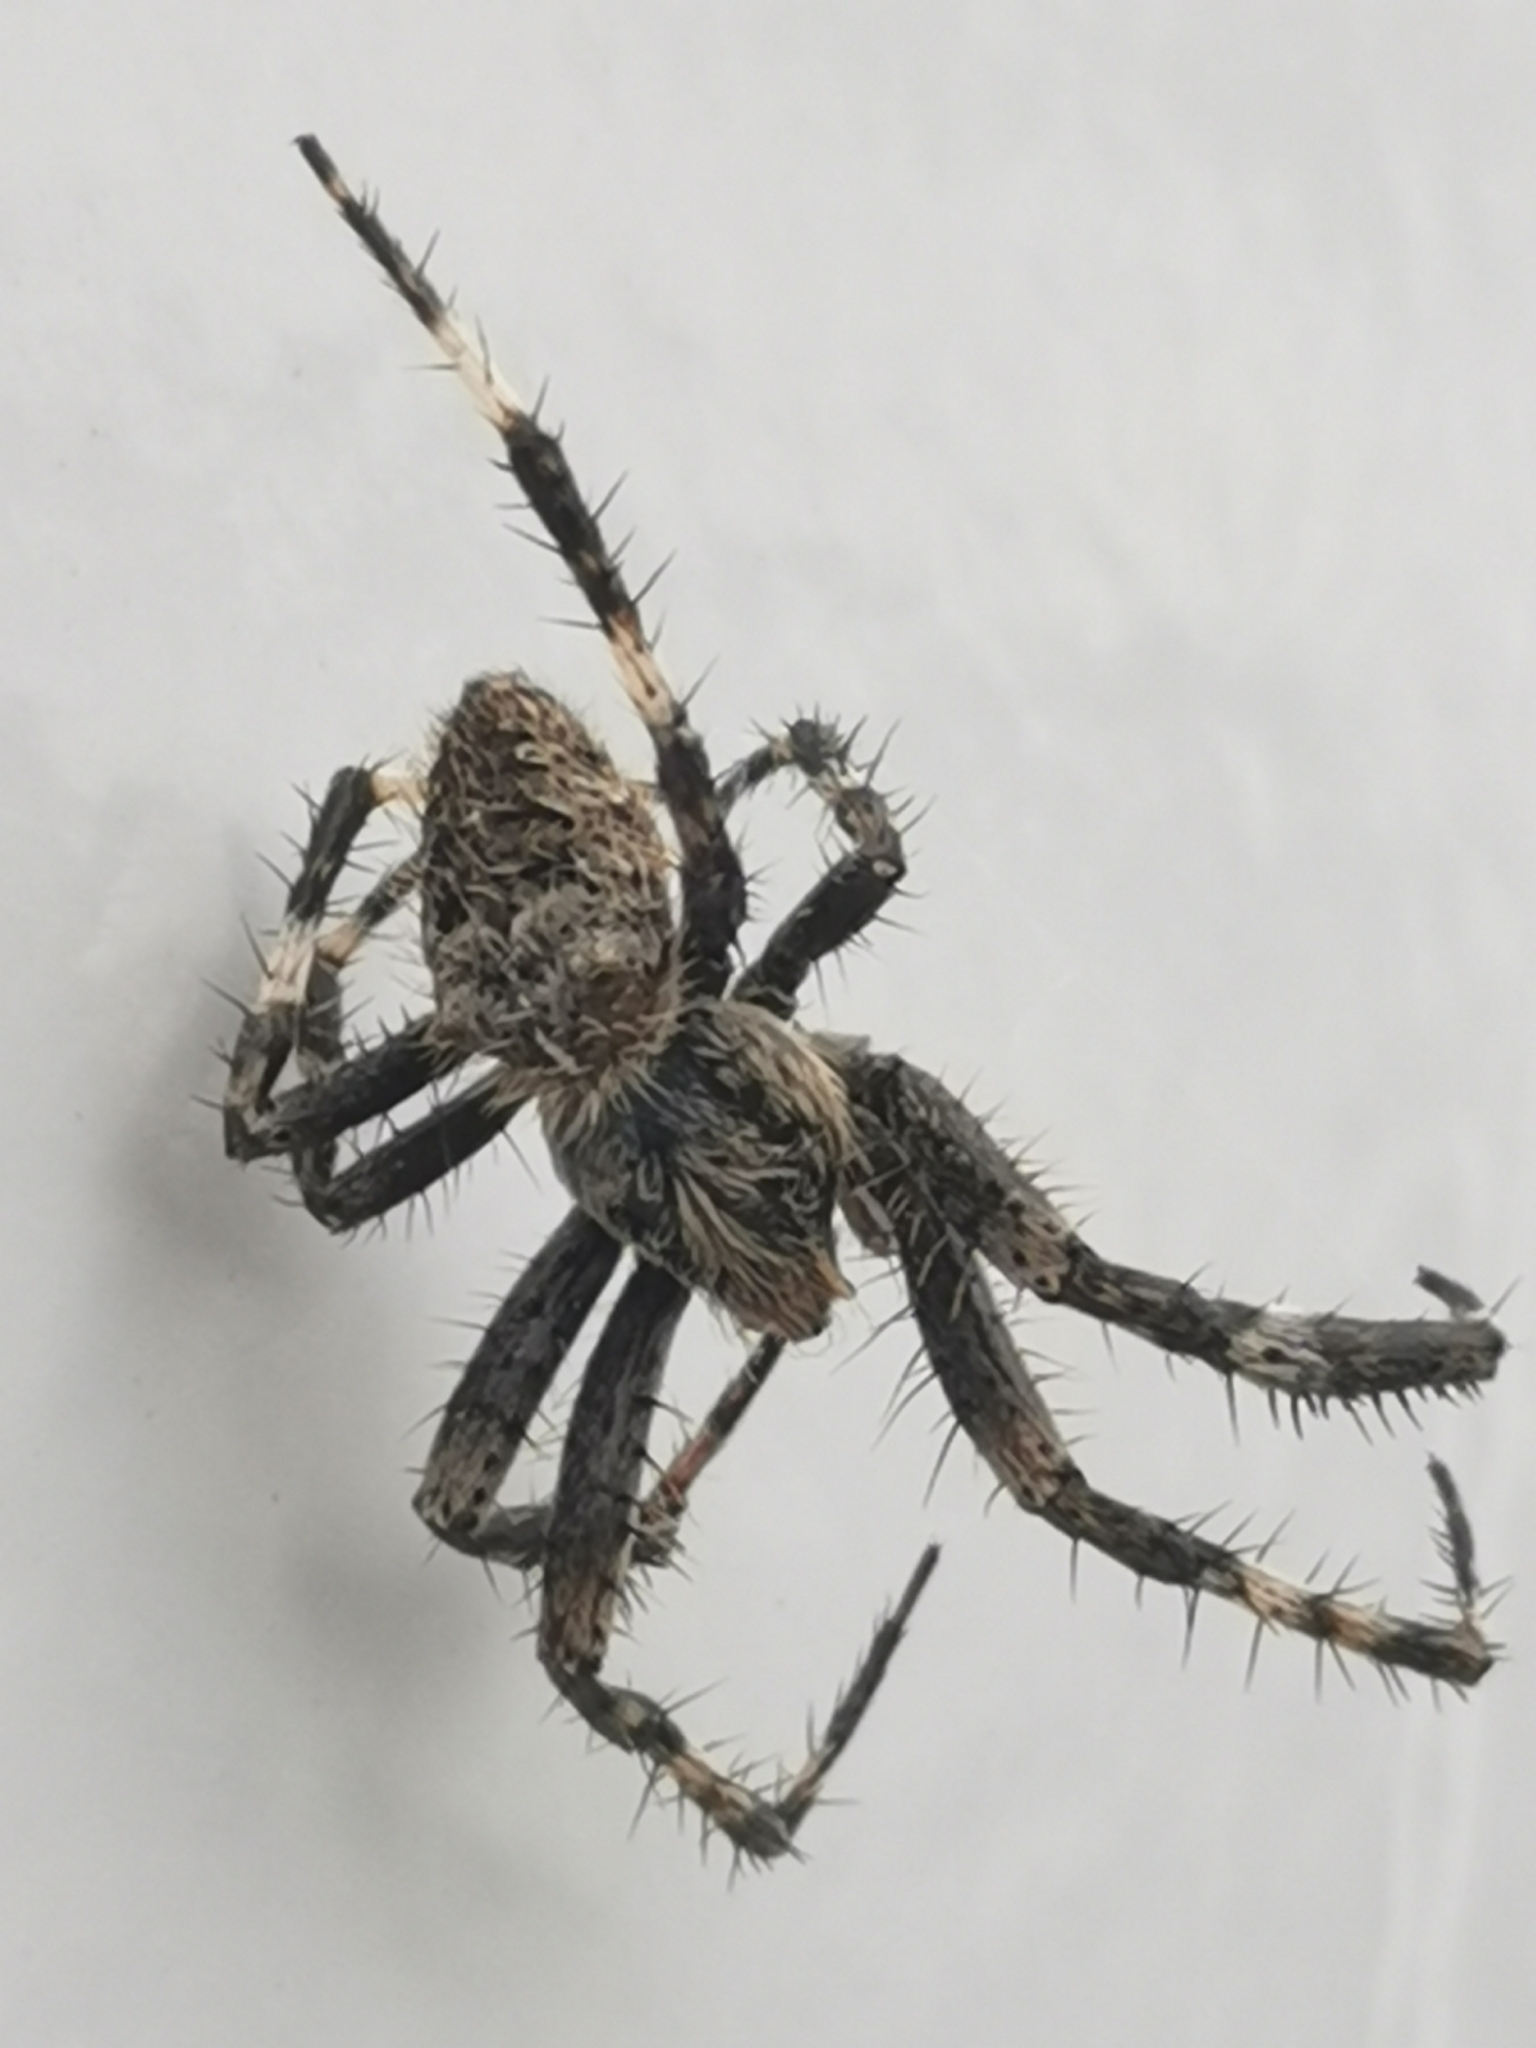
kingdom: Animalia
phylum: Arthropoda
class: Arachnida
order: Araneae
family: Araneidae
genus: Araneus
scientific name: Araneus saevus
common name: Fierce orbweaver
